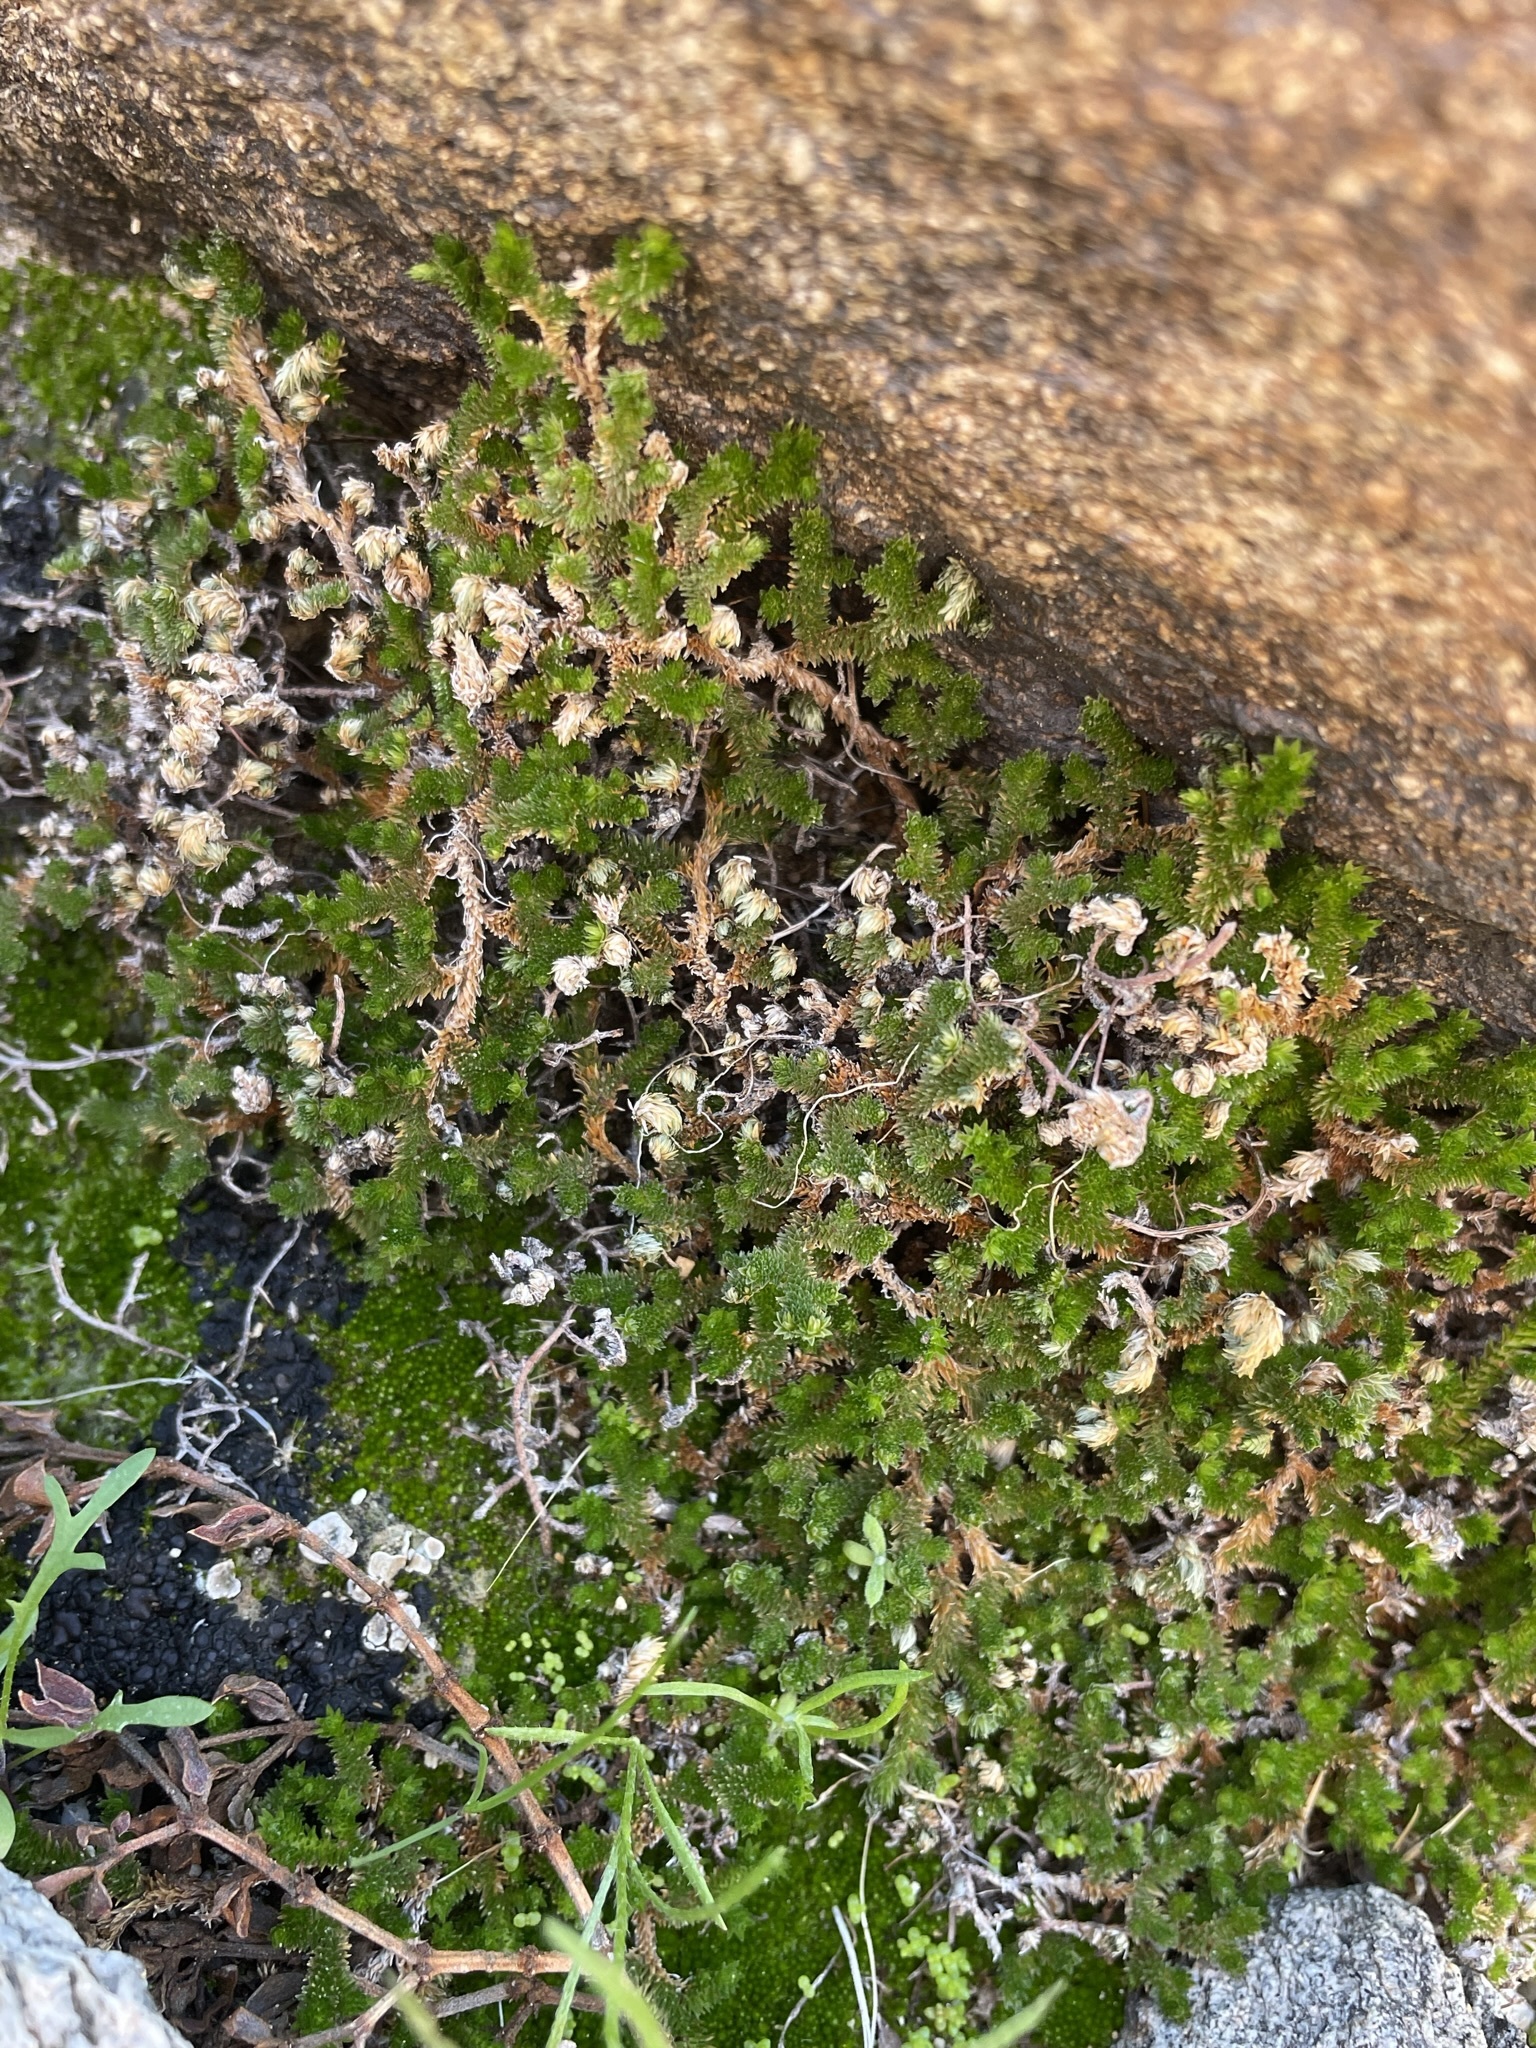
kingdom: Plantae
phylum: Tracheophyta
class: Lycopodiopsida
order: Selaginellales
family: Selaginellaceae
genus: Selaginella
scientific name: Selaginella eremophila
